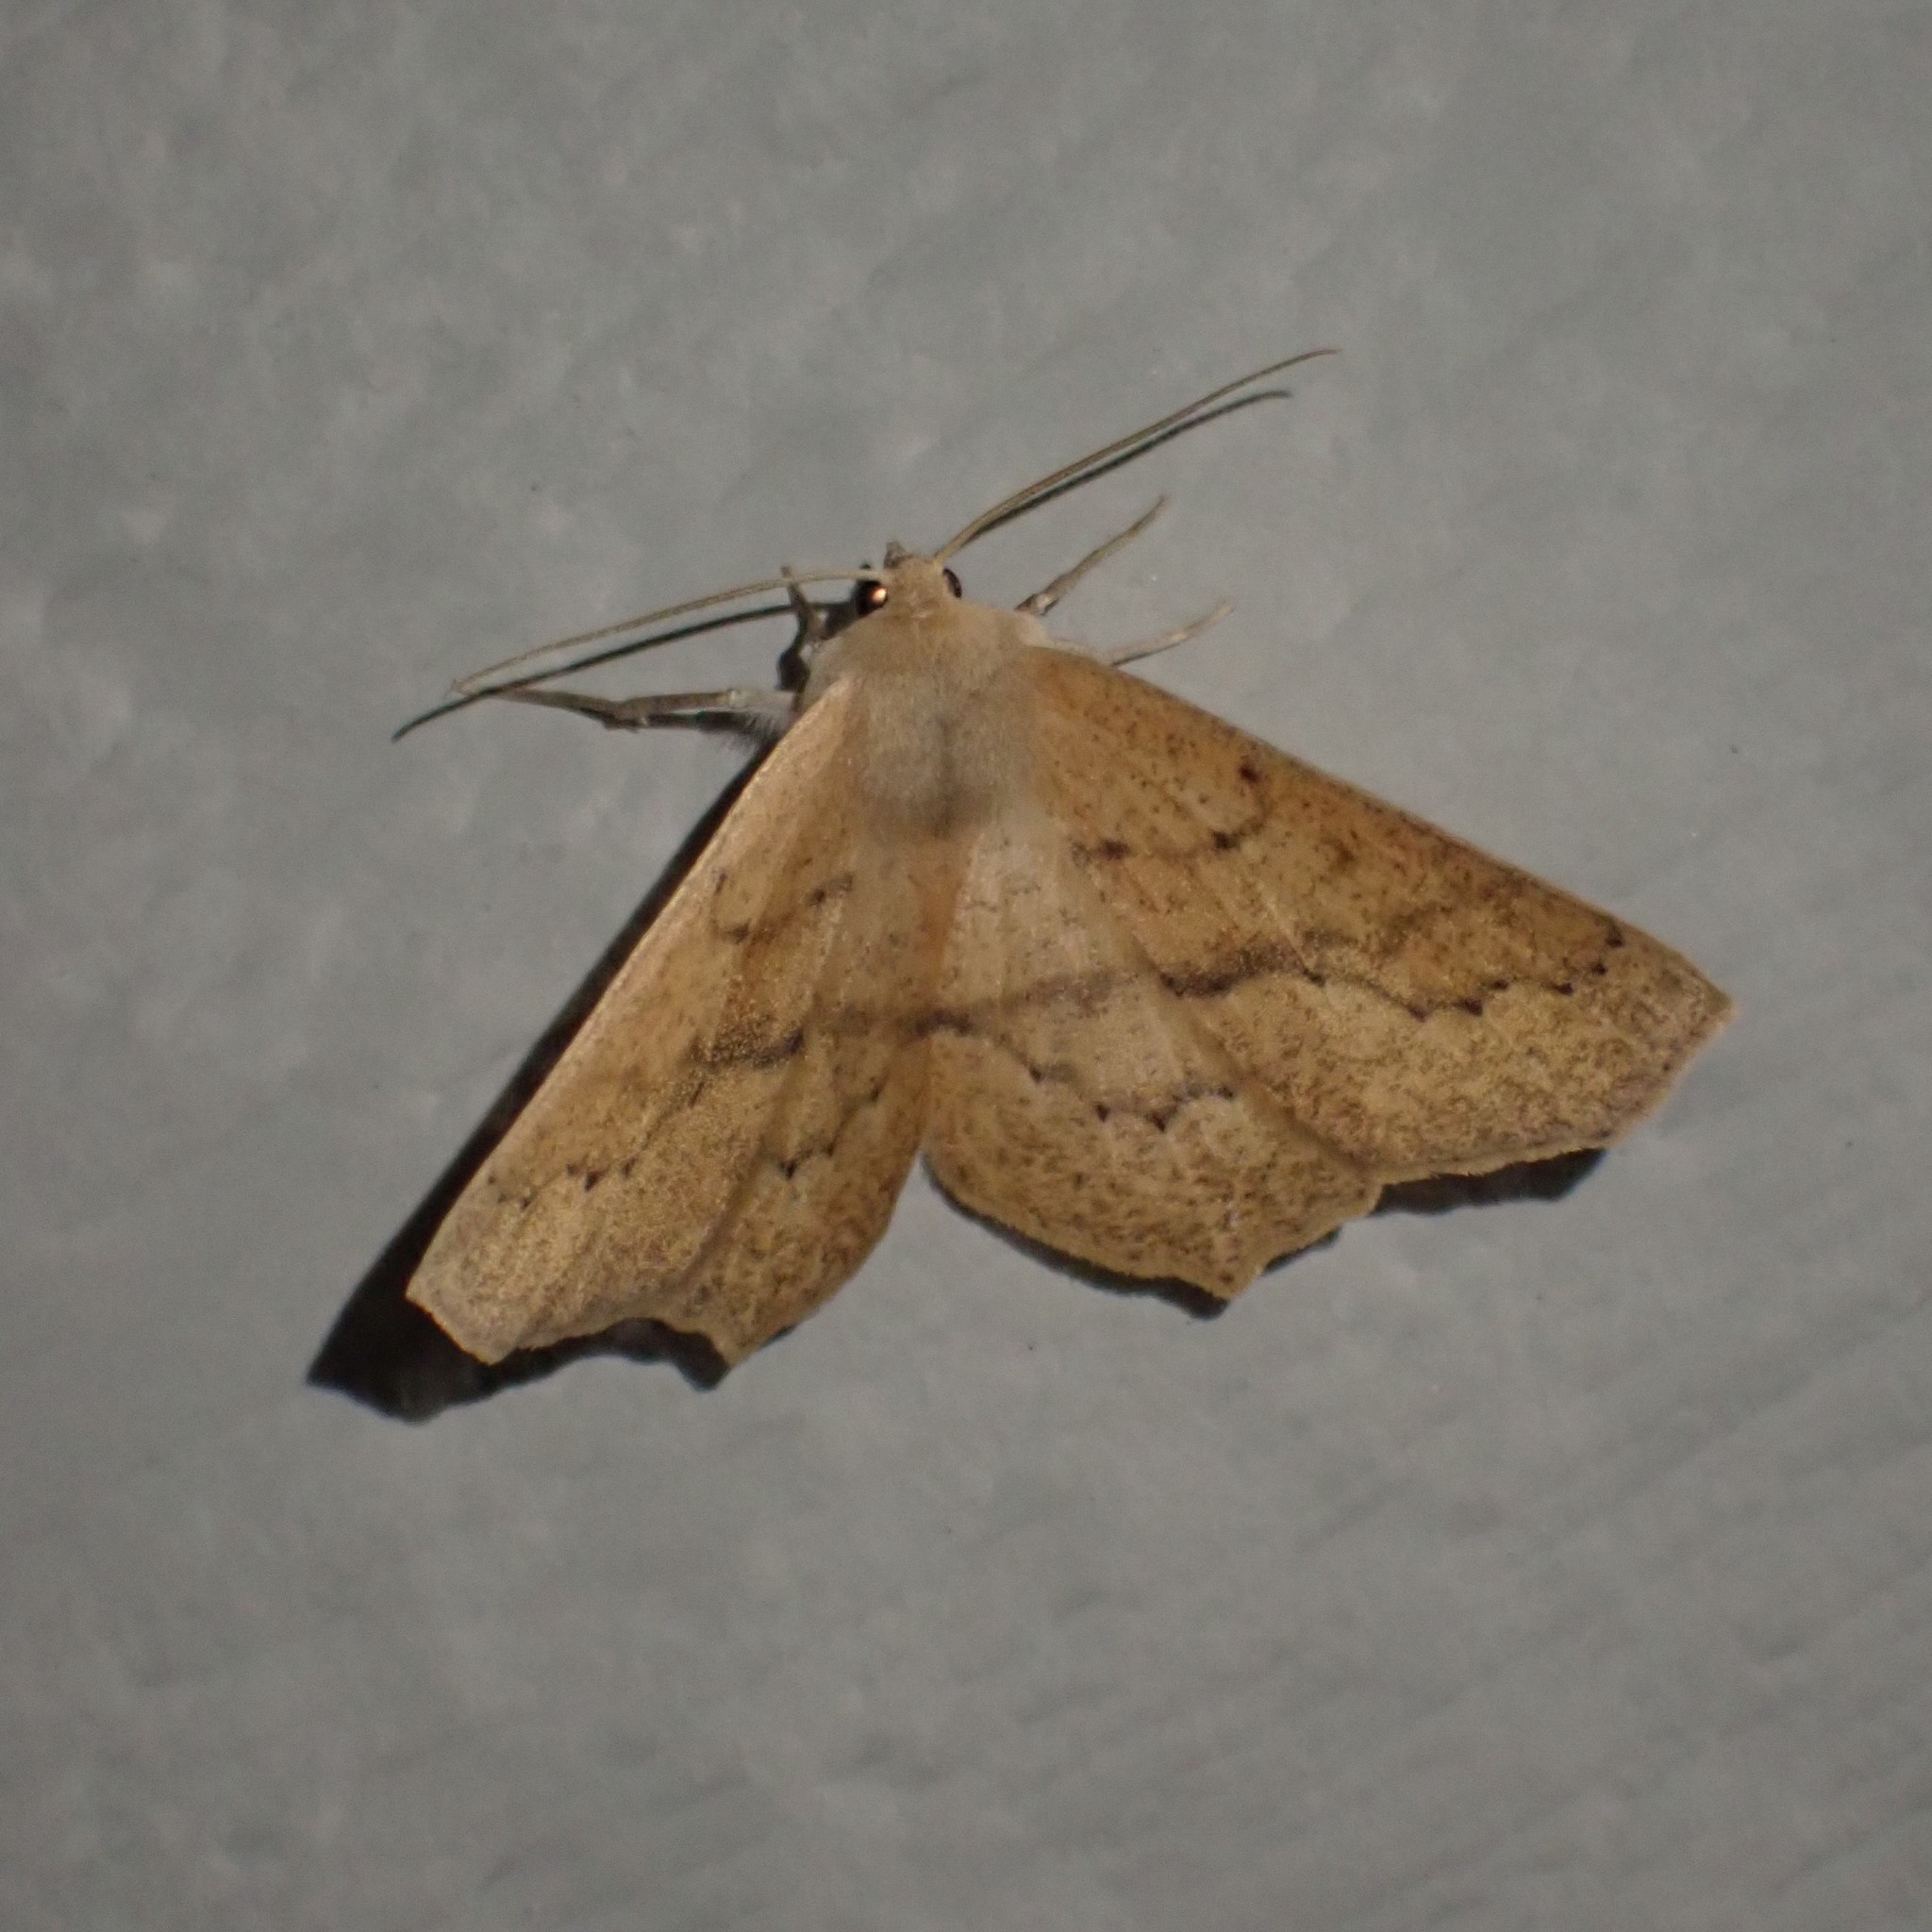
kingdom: Animalia
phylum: Arthropoda
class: Insecta
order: Lepidoptera
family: Geometridae
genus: Sabulodes
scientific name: Sabulodes aegrotata
